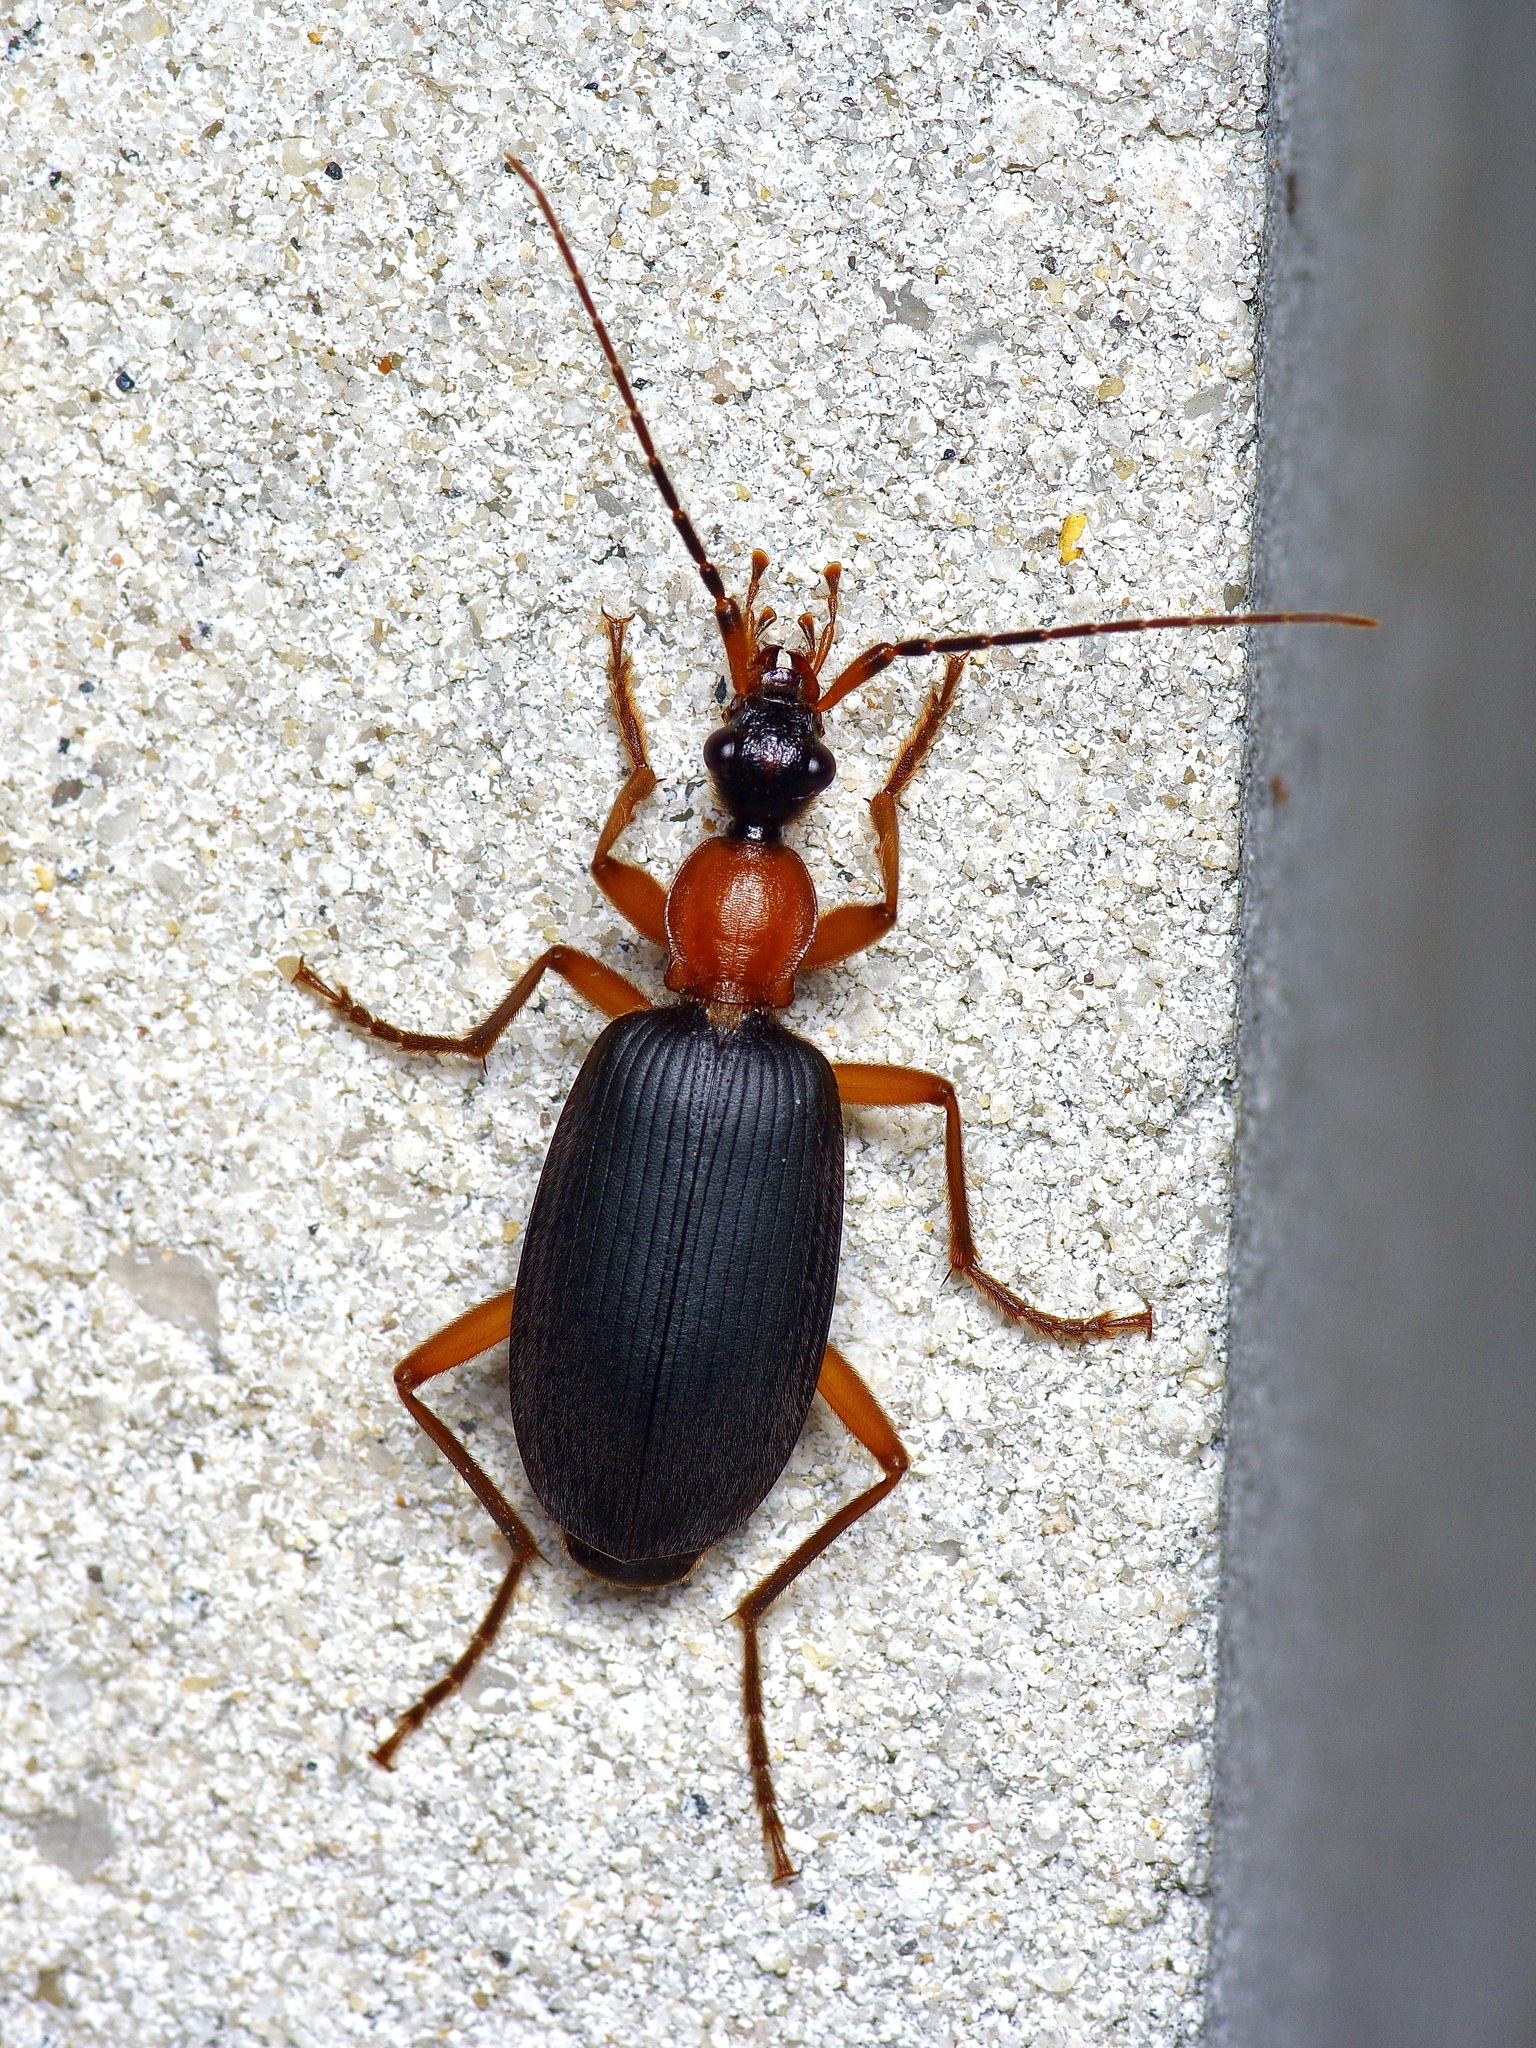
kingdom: Animalia
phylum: Arthropoda
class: Insecta
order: Coleoptera
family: Carabidae
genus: Galerita
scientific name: Galerita bicolor
